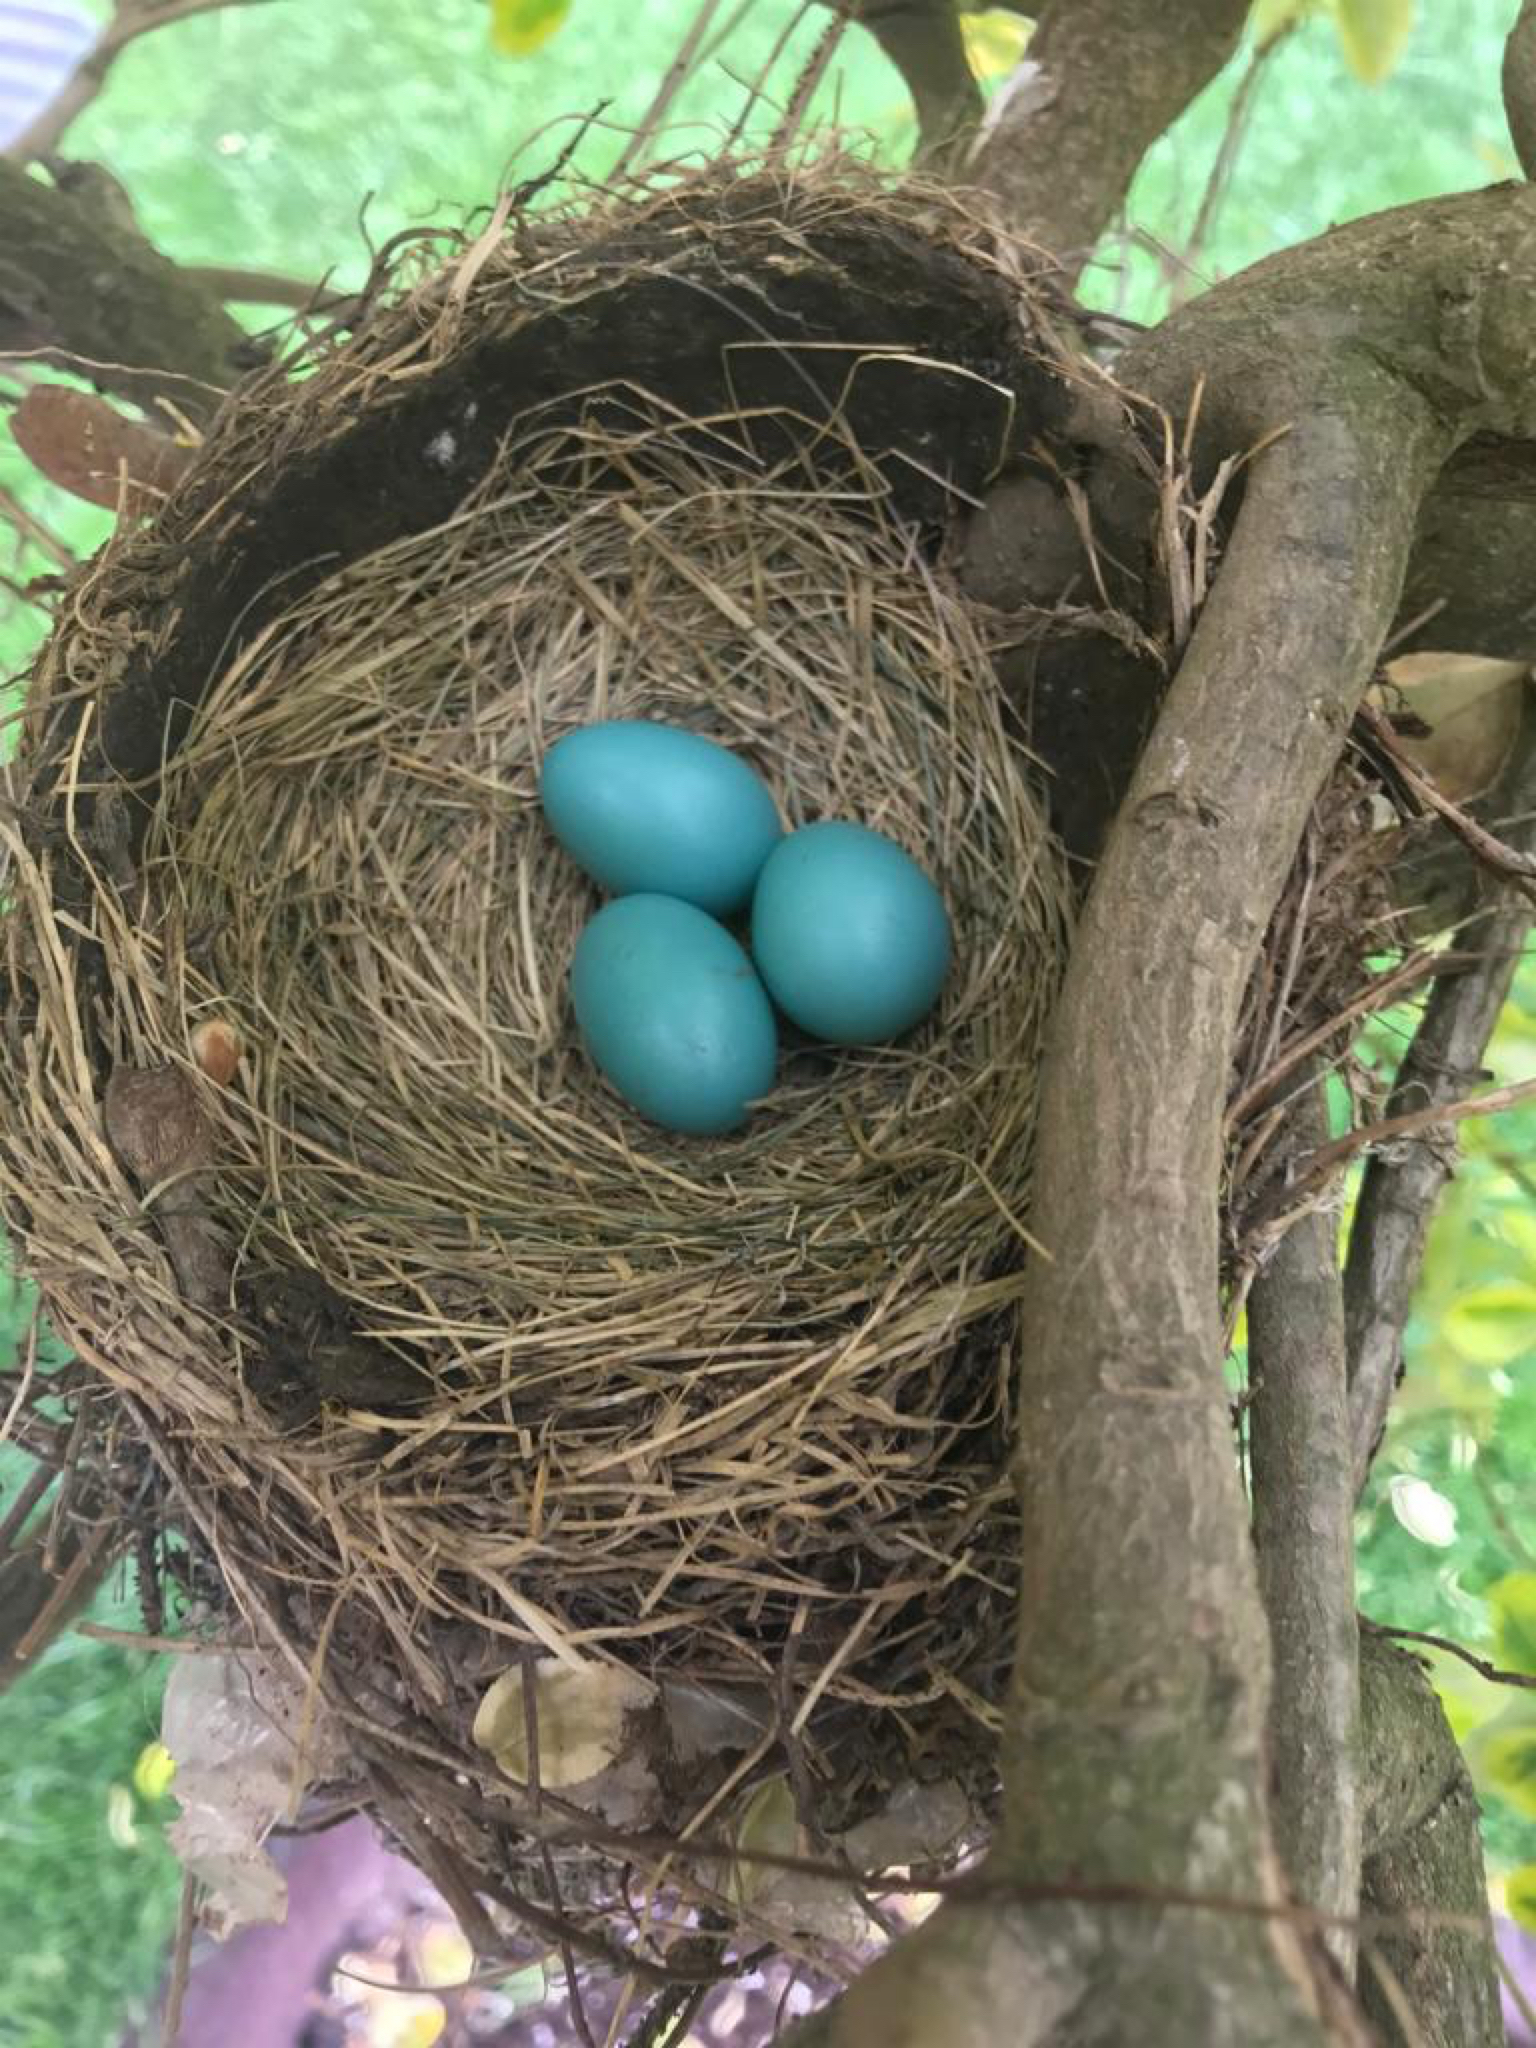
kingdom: Animalia
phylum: Chordata
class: Aves
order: Passeriformes
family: Turdidae
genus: Turdus
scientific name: Turdus migratorius
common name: American robin
